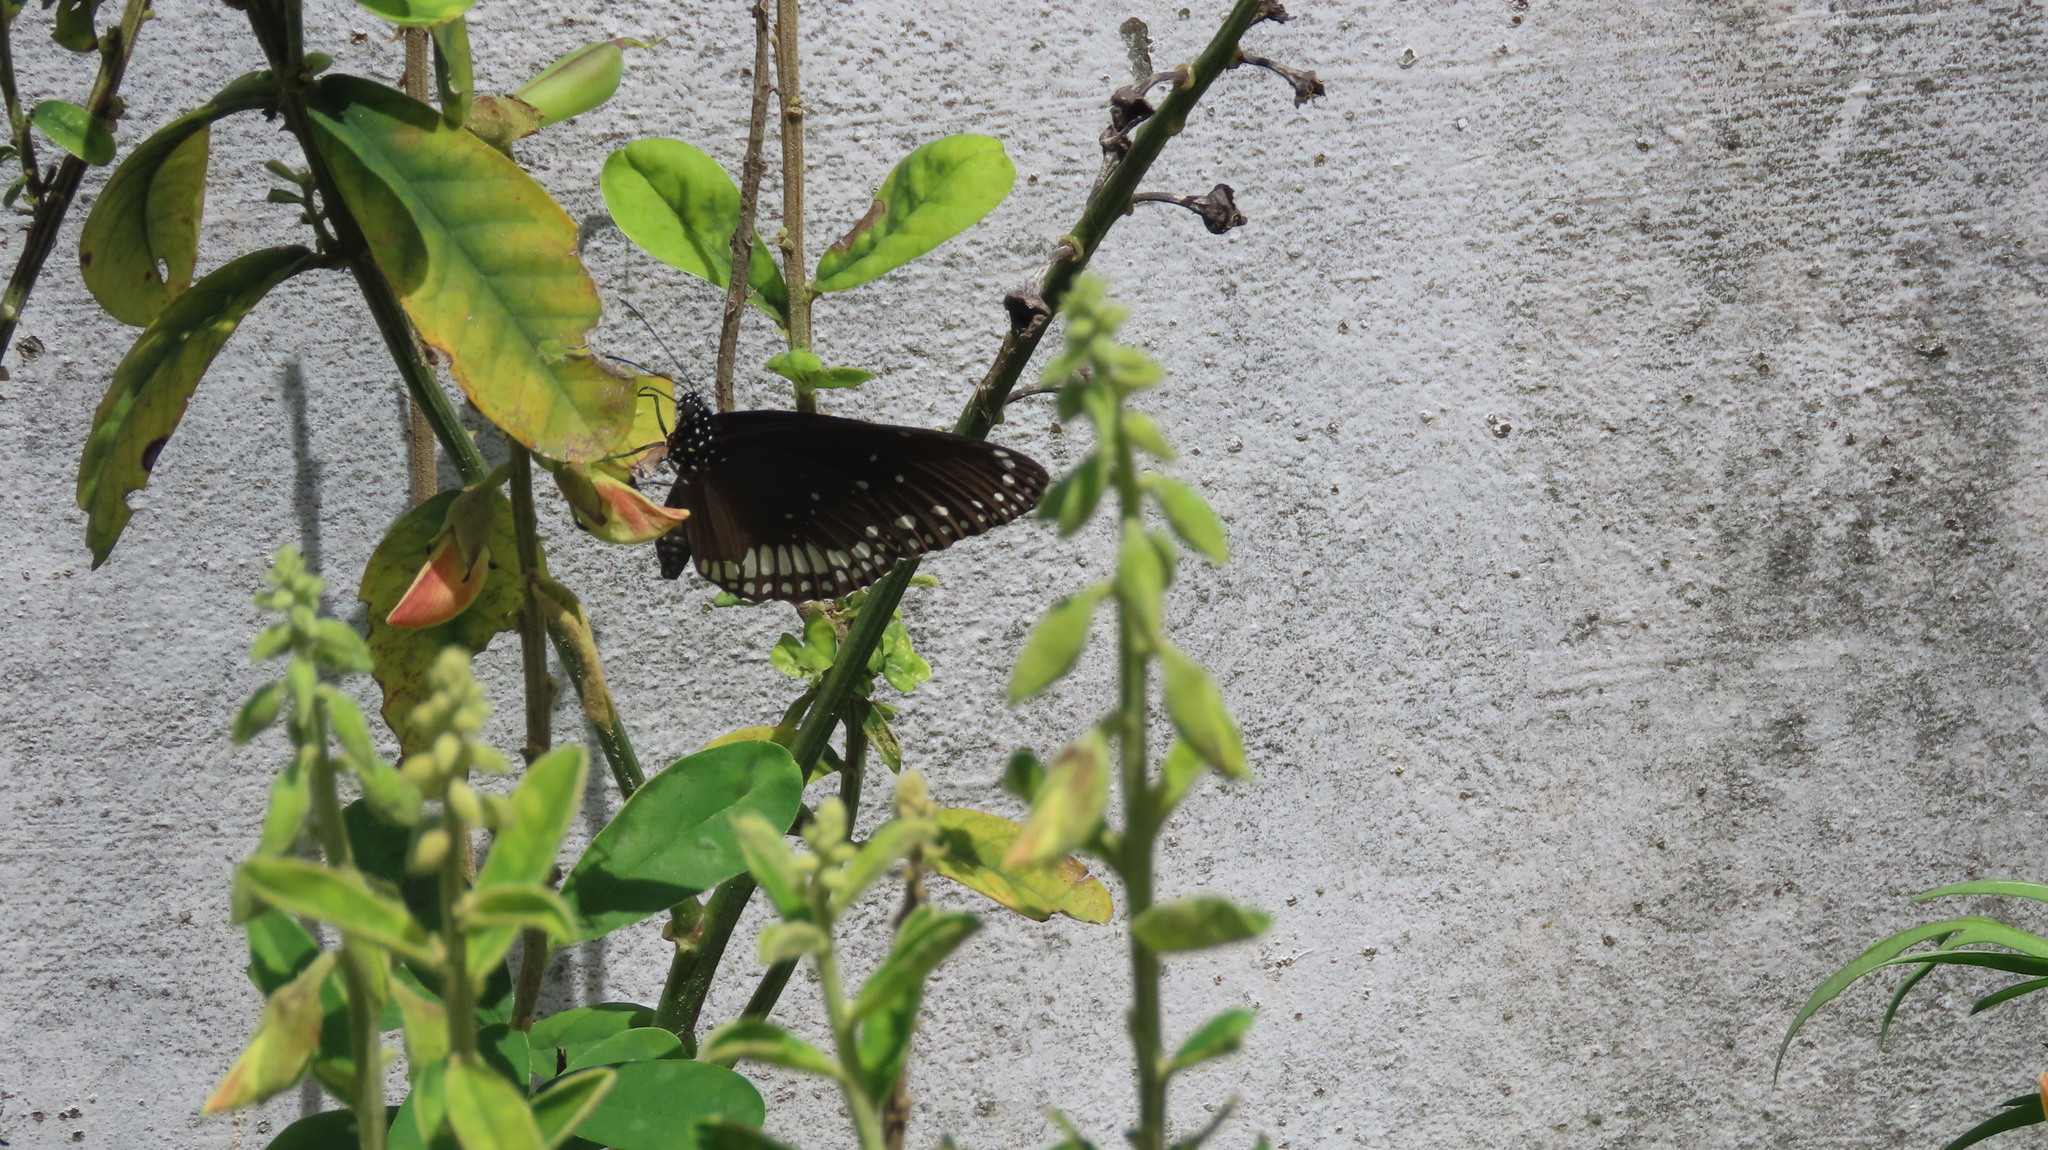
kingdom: Animalia
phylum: Arthropoda
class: Insecta
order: Lepidoptera
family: Nymphalidae
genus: Euploea
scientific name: Euploea core
